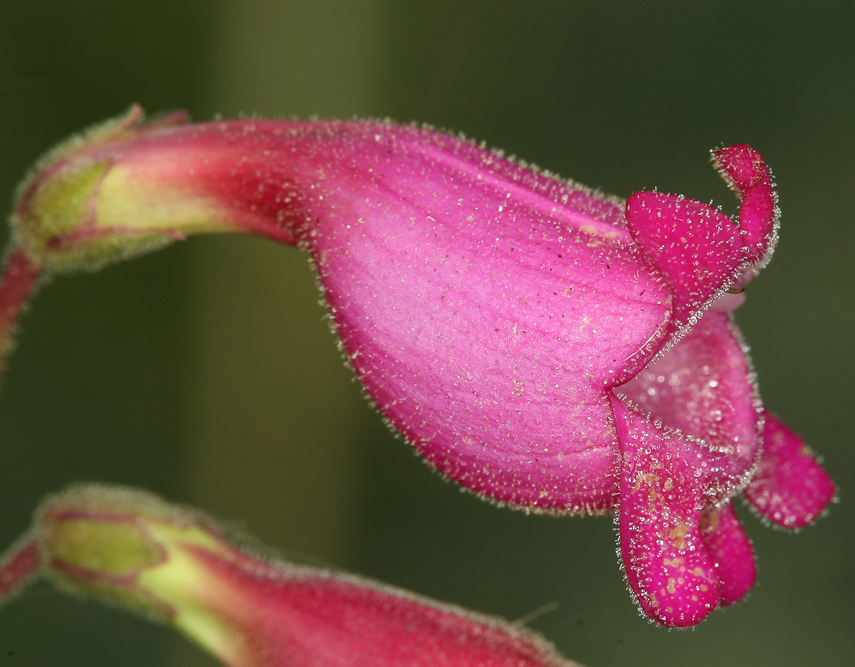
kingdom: Plantae
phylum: Tracheophyta
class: Magnoliopsida
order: Lamiales
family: Plantaginaceae
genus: Penstemon
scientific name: Penstemon floridus
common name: Panamint penstemon
